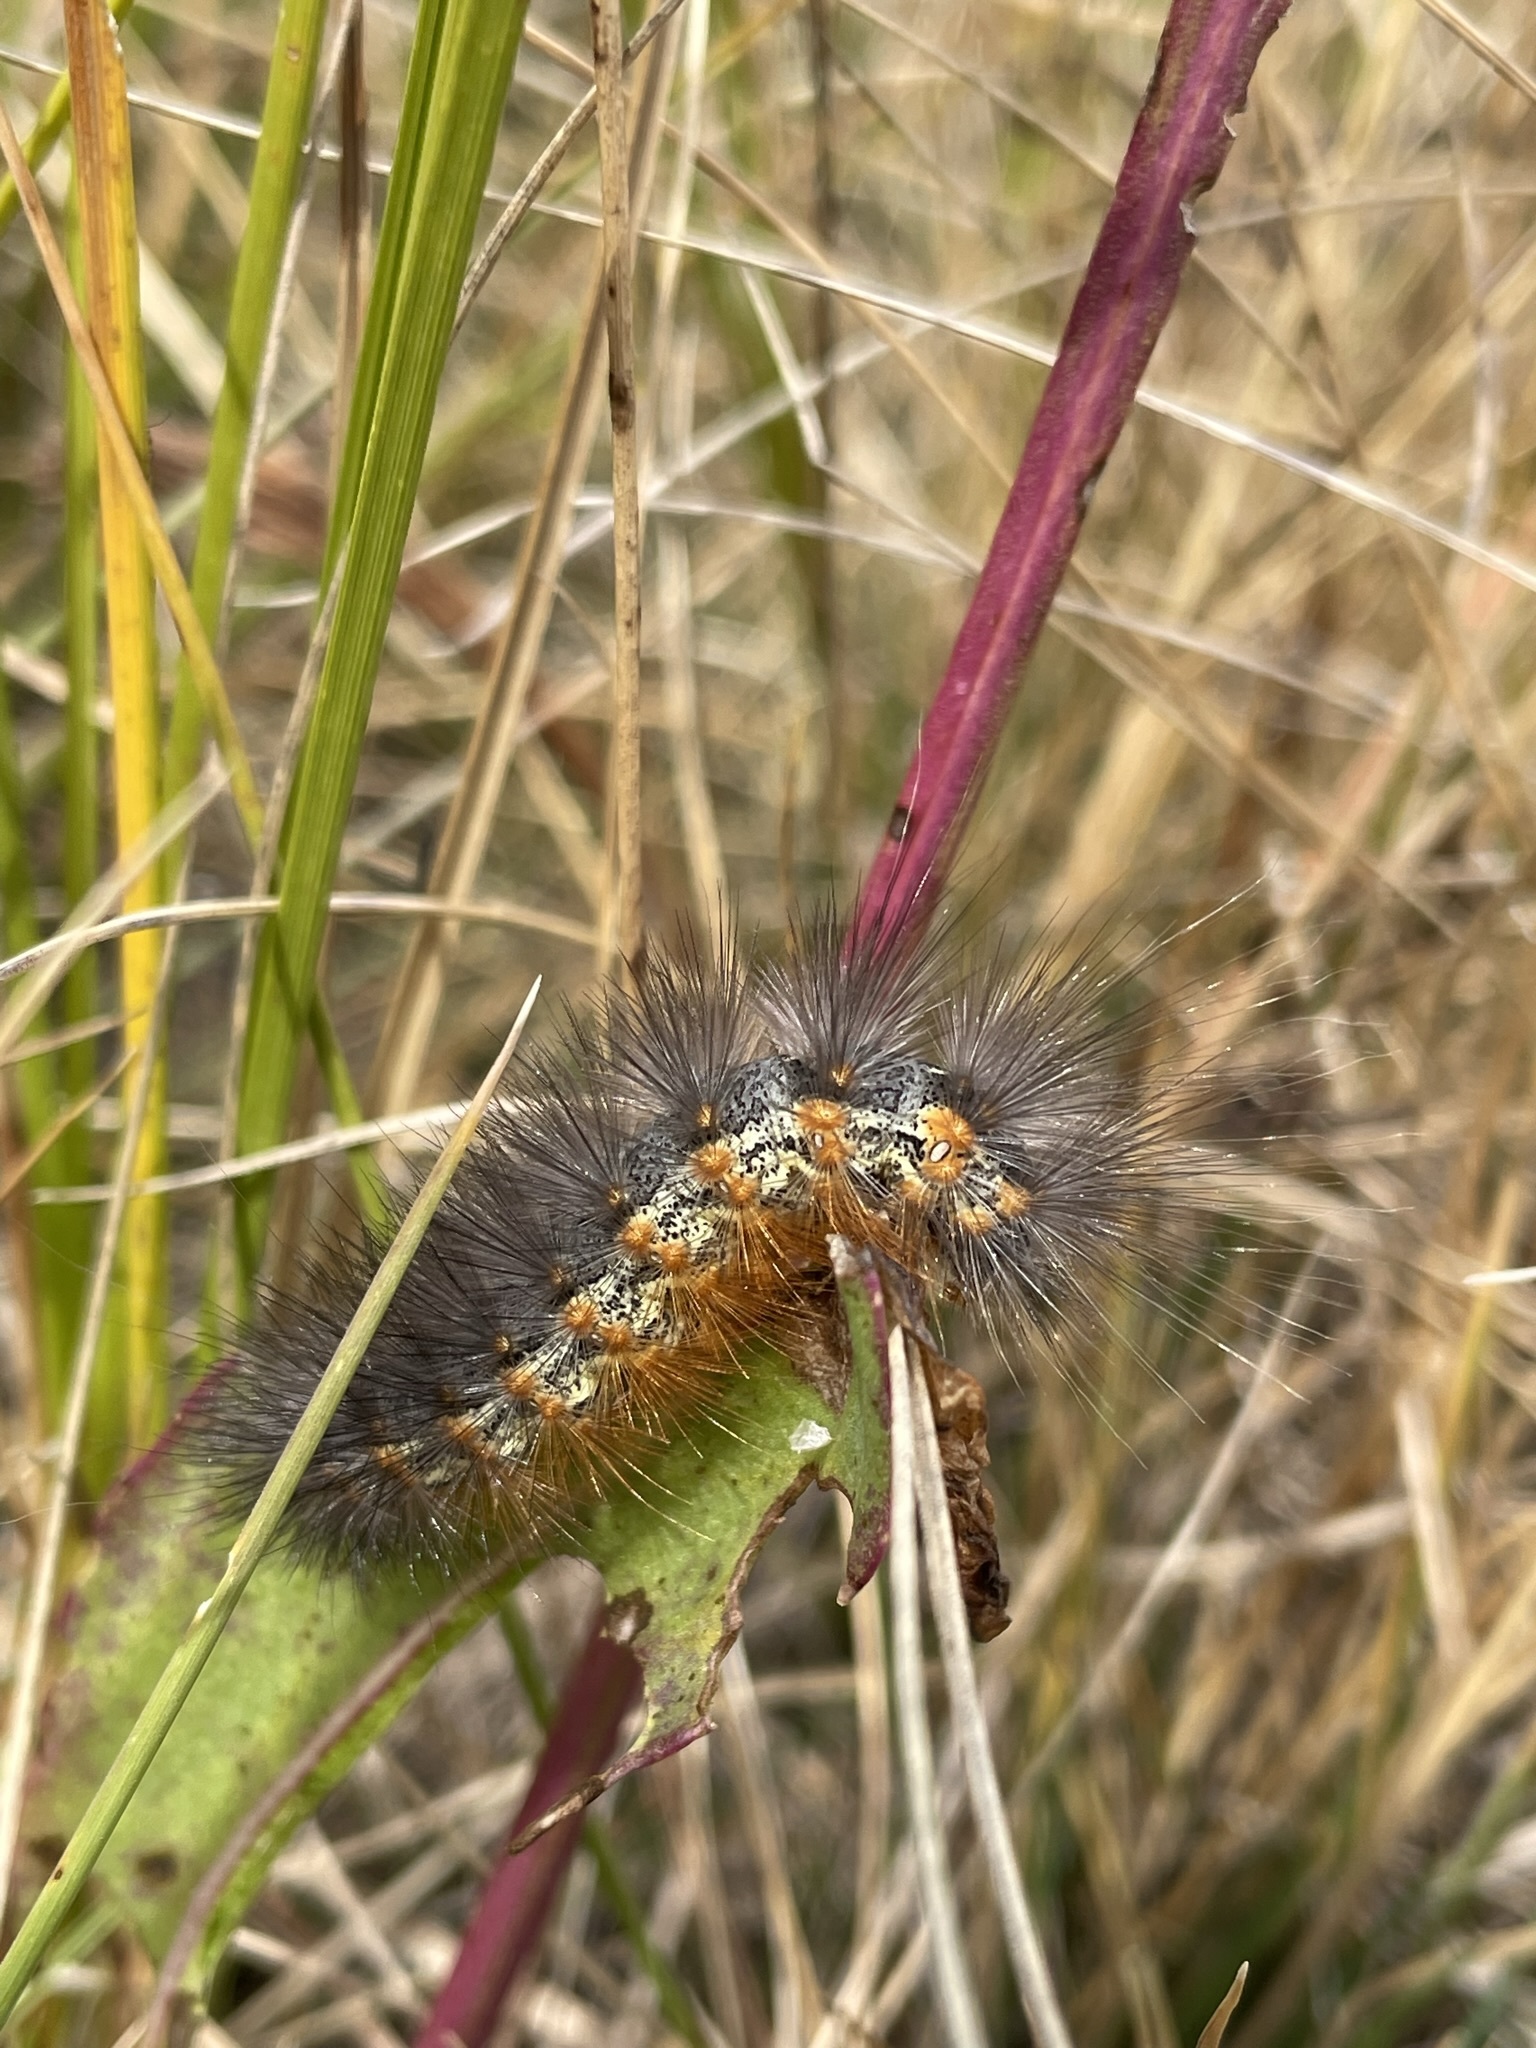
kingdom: Animalia
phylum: Arthropoda
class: Insecta
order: Lepidoptera
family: Erebidae
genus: Estigmene
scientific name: Estigmene
